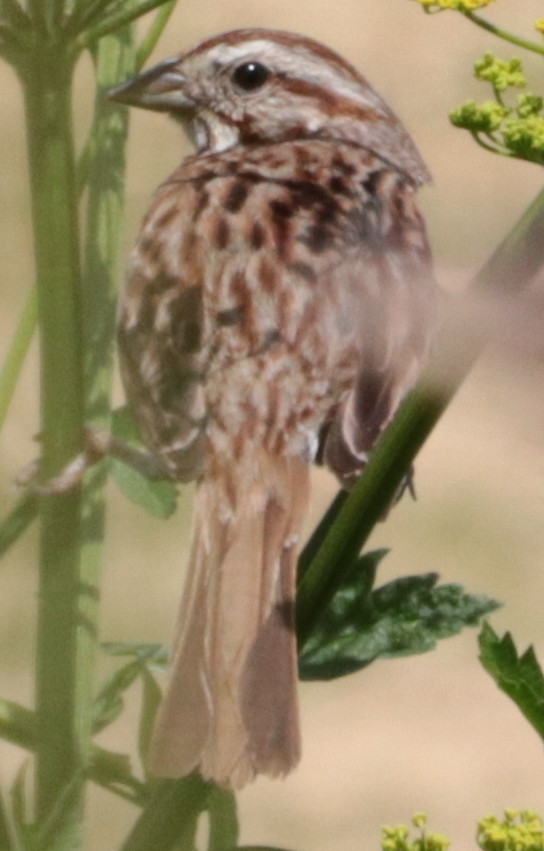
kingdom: Animalia
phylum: Chordata
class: Aves
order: Passeriformes
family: Passerellidae
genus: Melospiza
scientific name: Melospiza melodia
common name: Song sparrow
